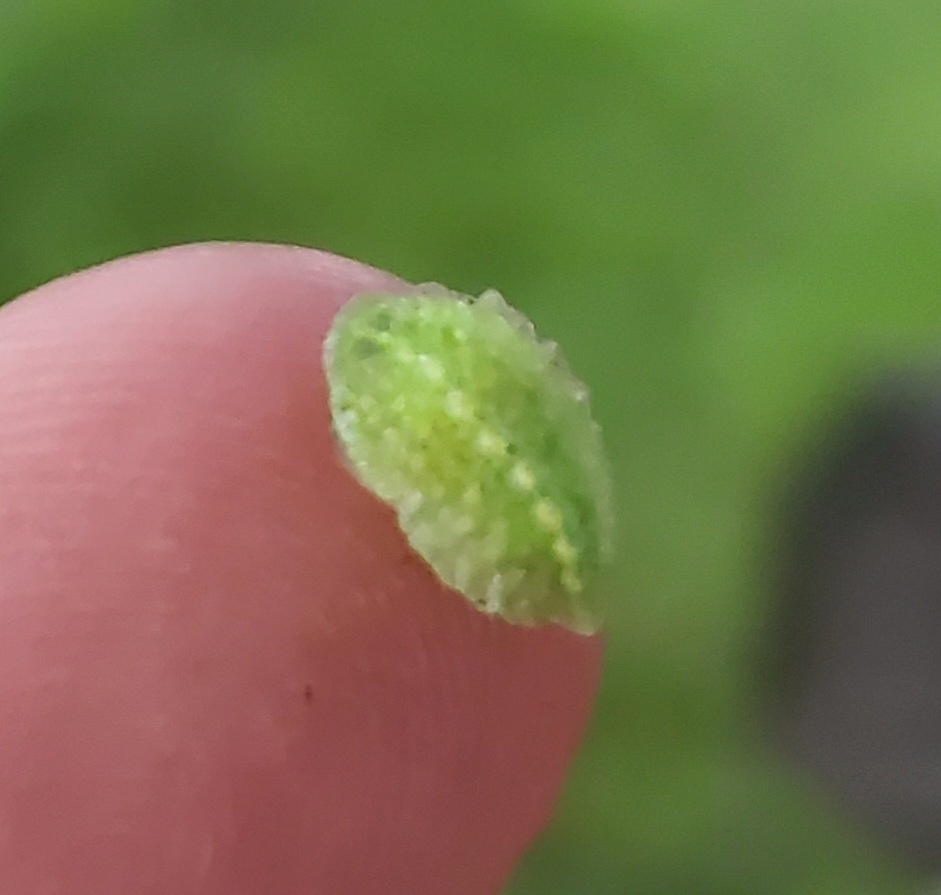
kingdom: Animalia
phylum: Arthropoda
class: Insecta
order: Lepidoptera
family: Limacodidae
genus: Lithacodes
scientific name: Lithacodes fasciola
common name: Yellow-shouldered slug moth
